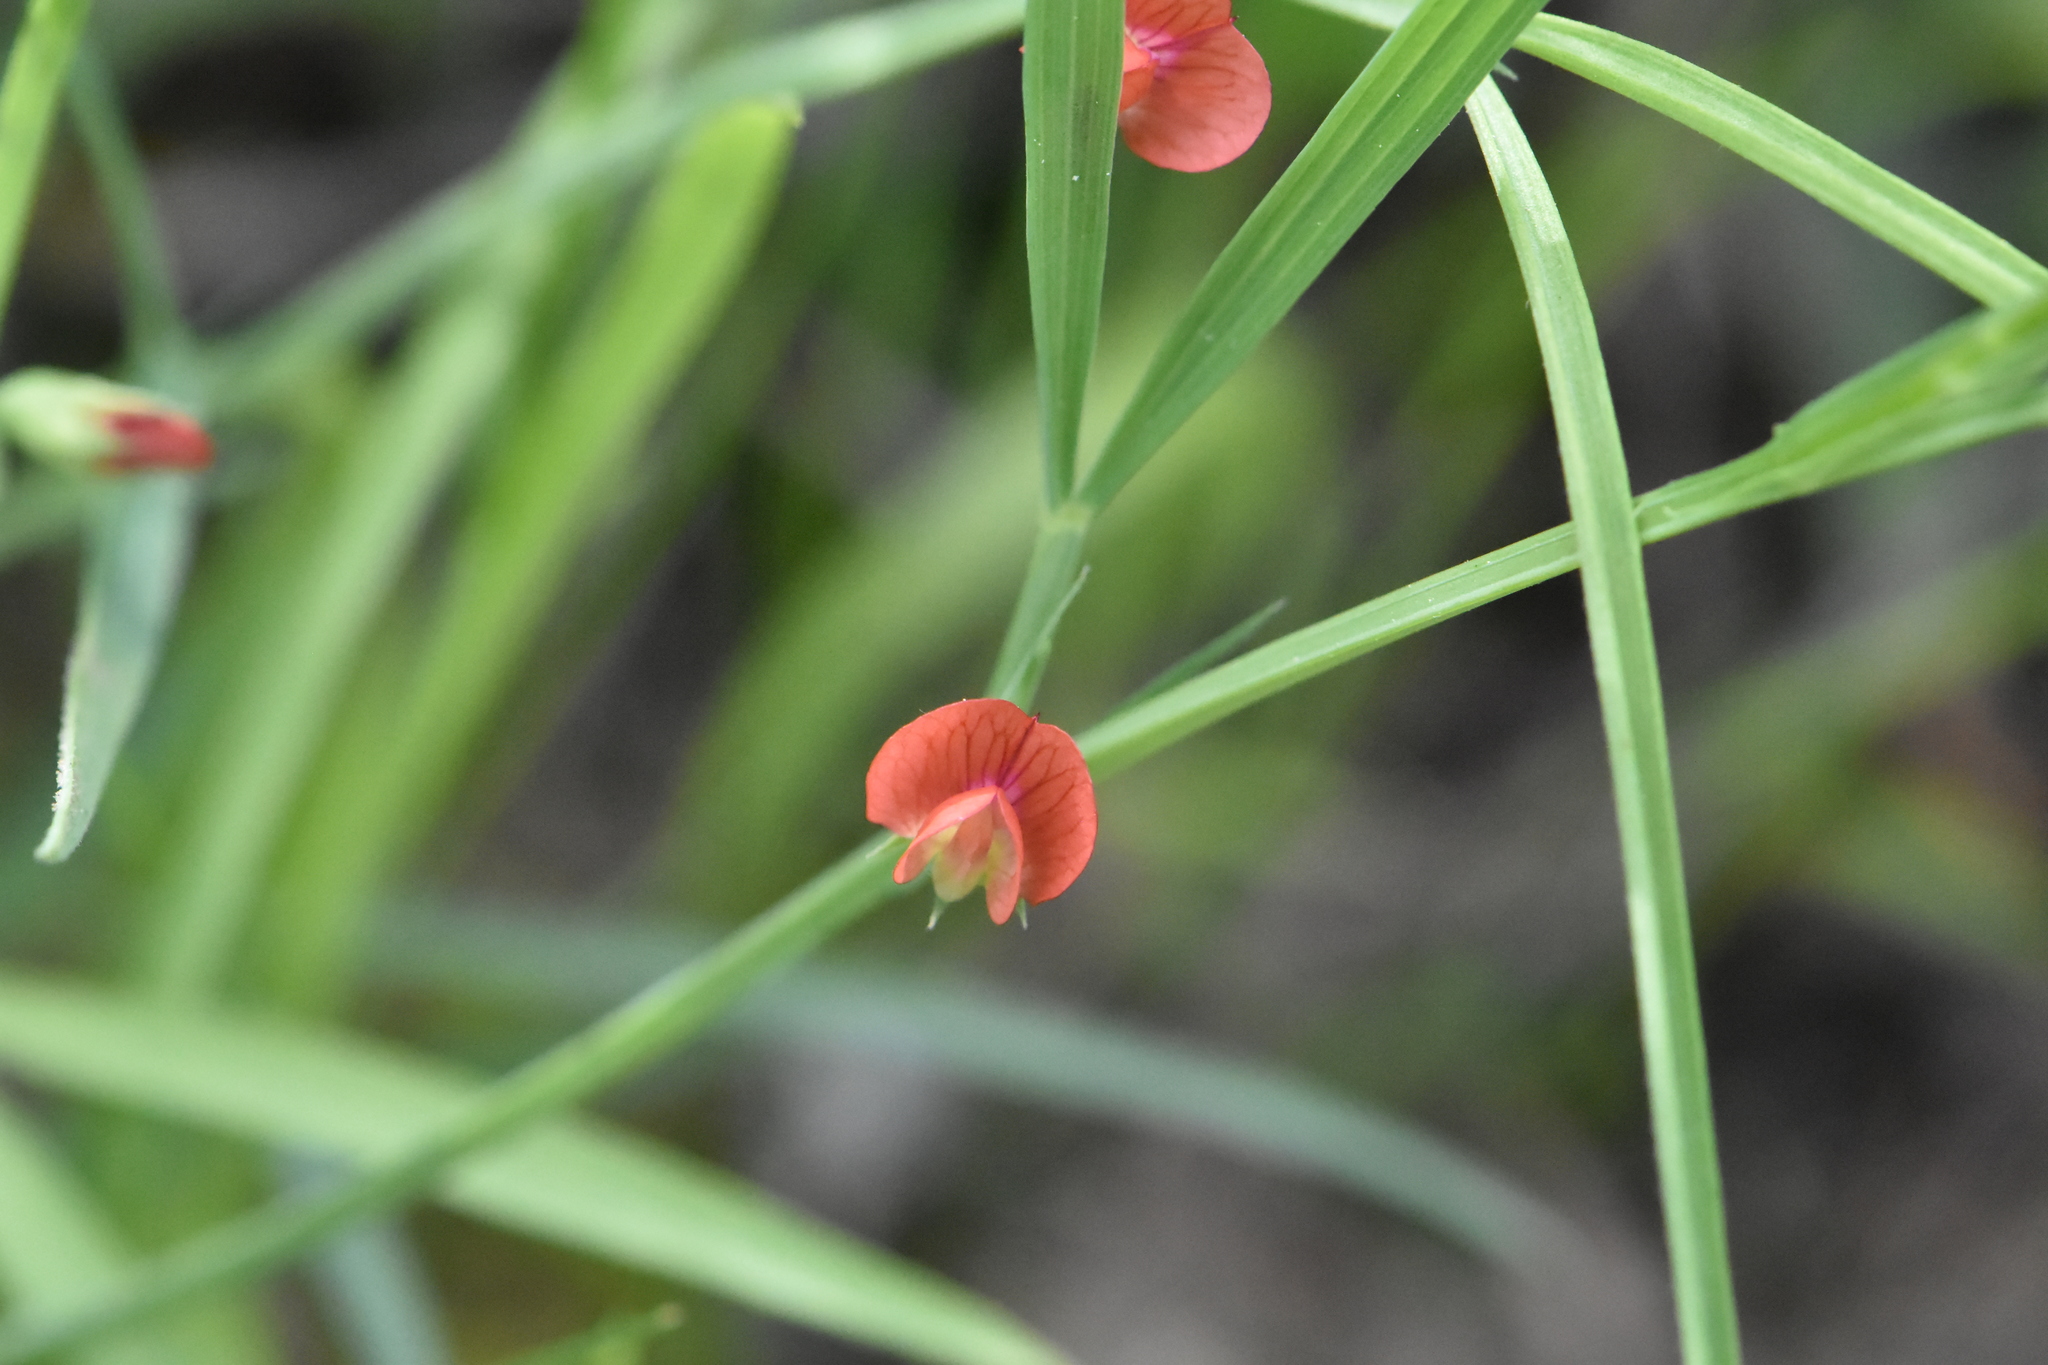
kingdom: Plantae
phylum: Tracheophyta
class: Magnoliopsida
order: Fabales
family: Fabaceae
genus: Lathyrus
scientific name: Lathyrus sphaericus
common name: Grass pea
